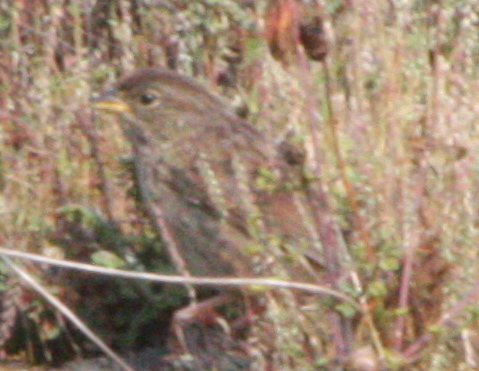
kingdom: Animalia
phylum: Chordata
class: Aves
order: Passeriformes
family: Passerellidae
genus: Aimophila
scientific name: Aimophila ruficeps
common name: Rufous-crowned sparrow
